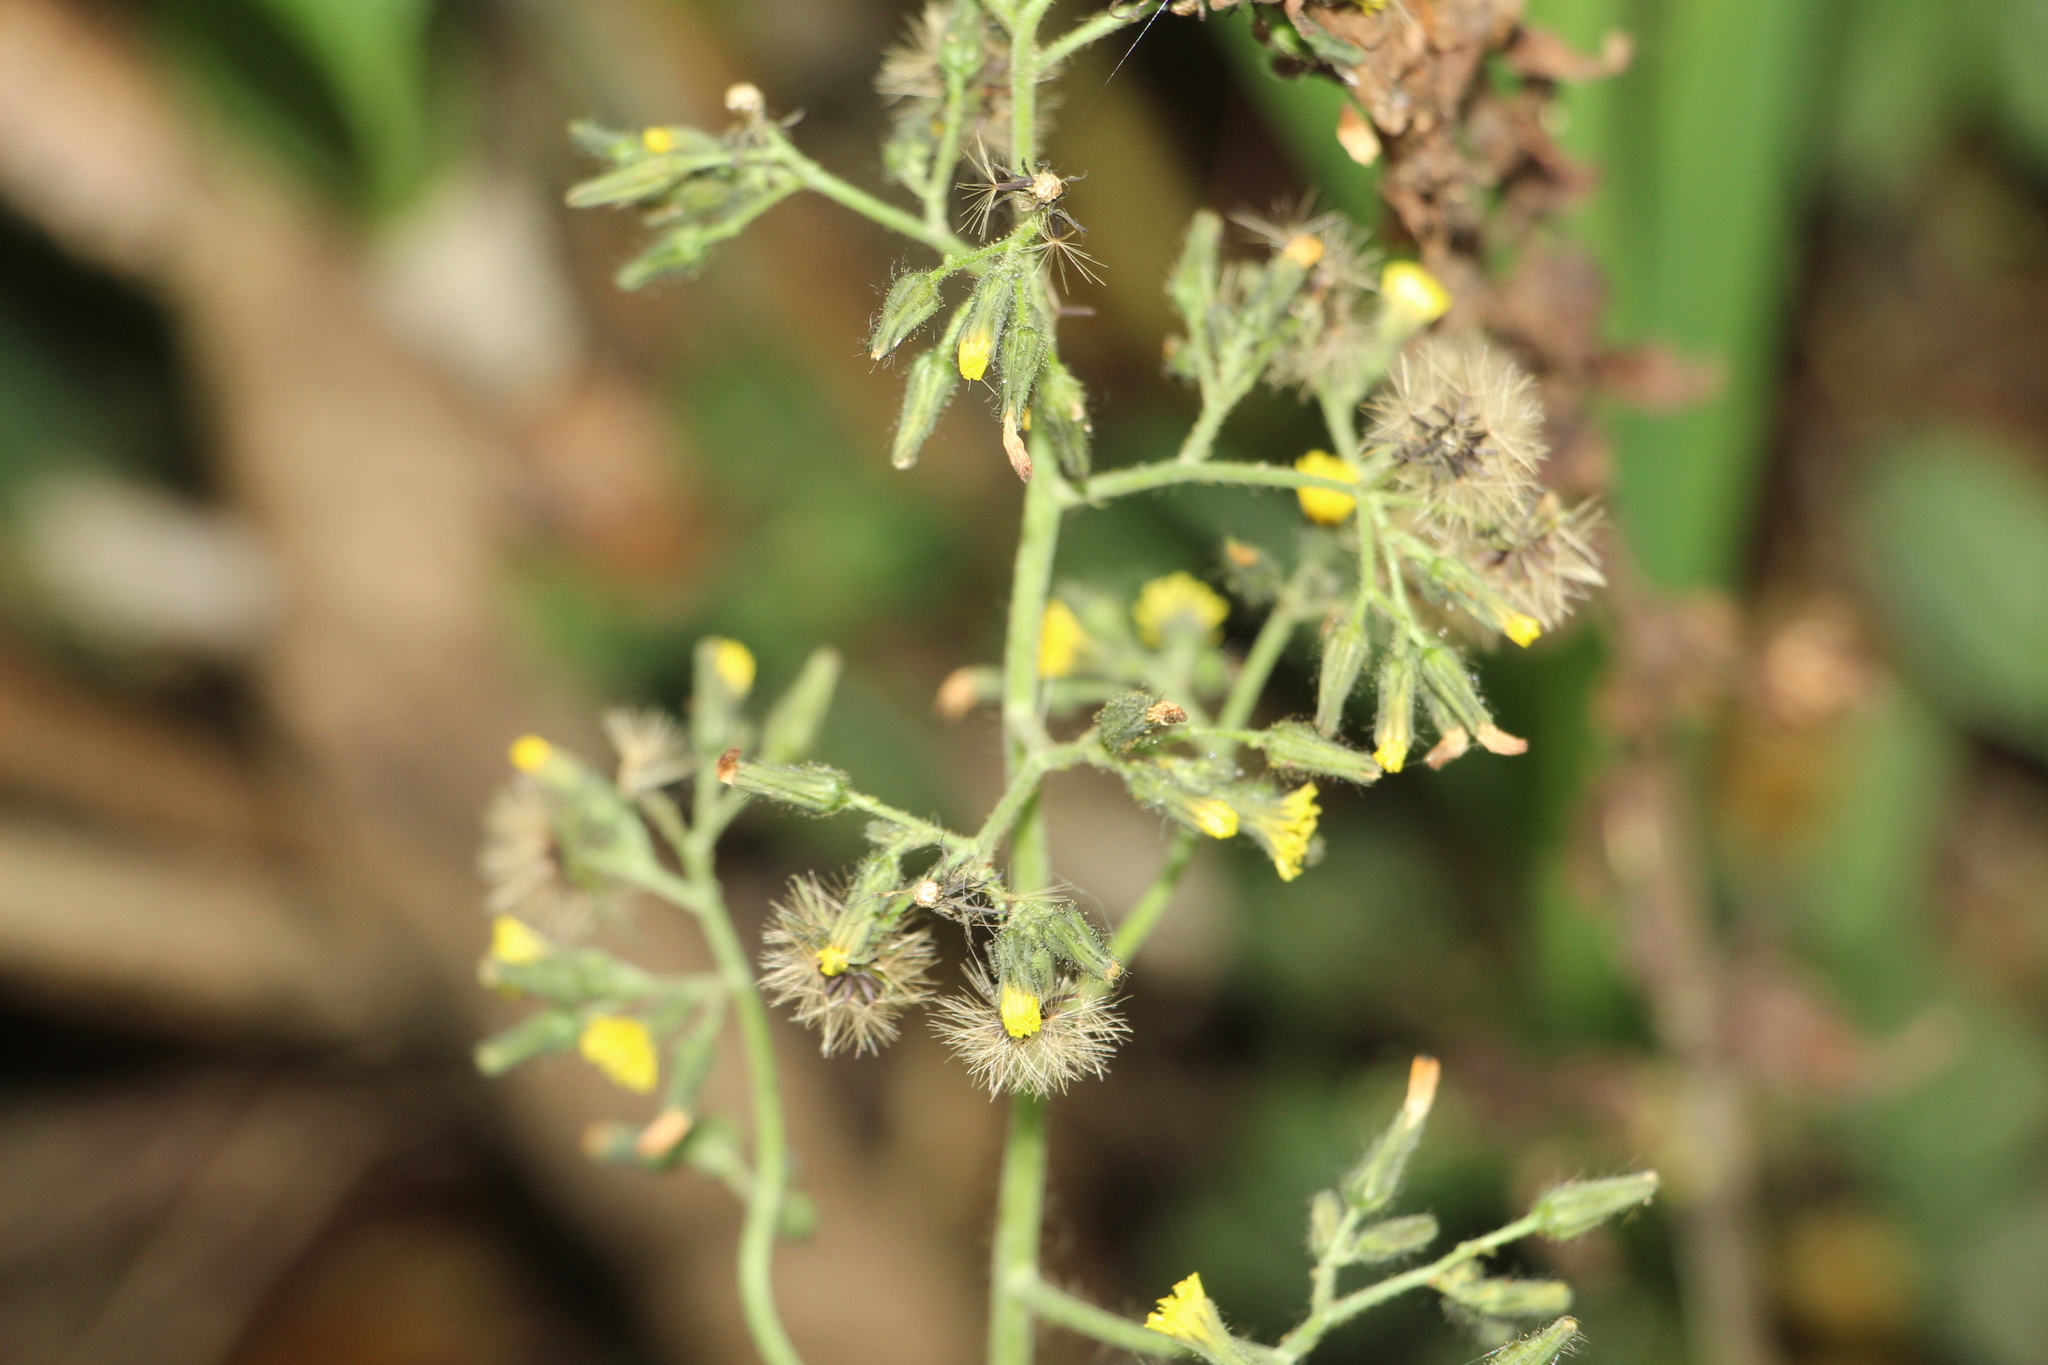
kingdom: Plantae
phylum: Tracheophyta
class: Magnoliopsida
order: Asterales
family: Asteraceae
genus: Hieracium
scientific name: Hieracium avilae
